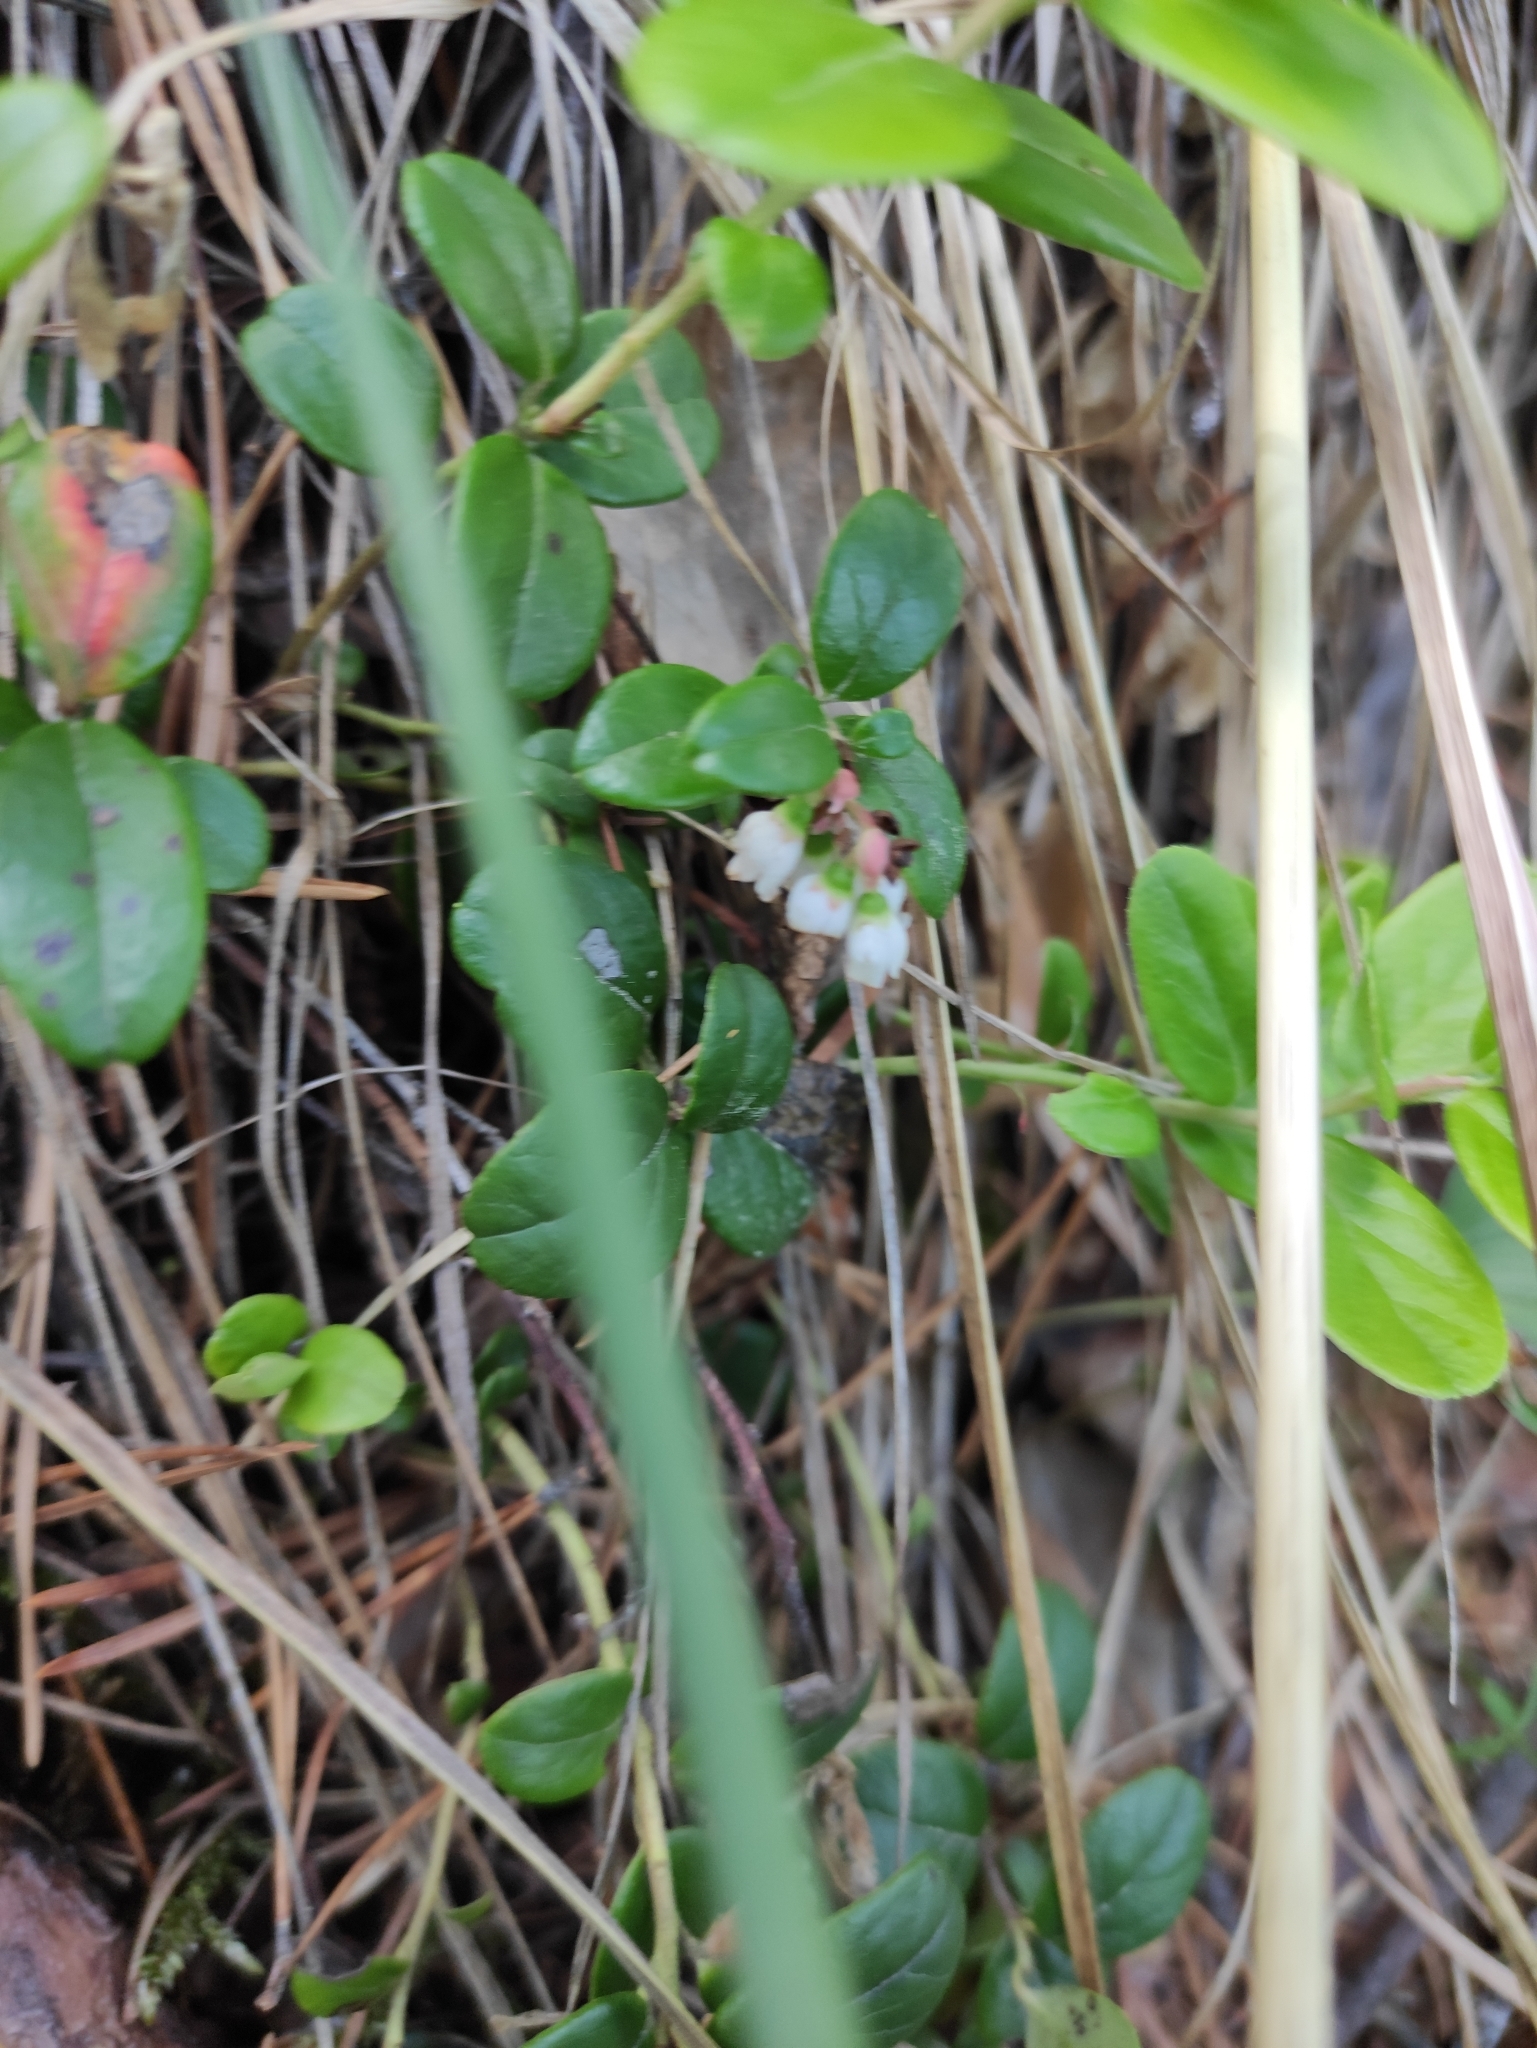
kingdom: Plantae
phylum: Tracheophyta
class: Magnoliopsida
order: Ericales
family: Ericaceae
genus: Vaccinium
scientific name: Vaccinium vitis-idaea
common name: Cowberry
